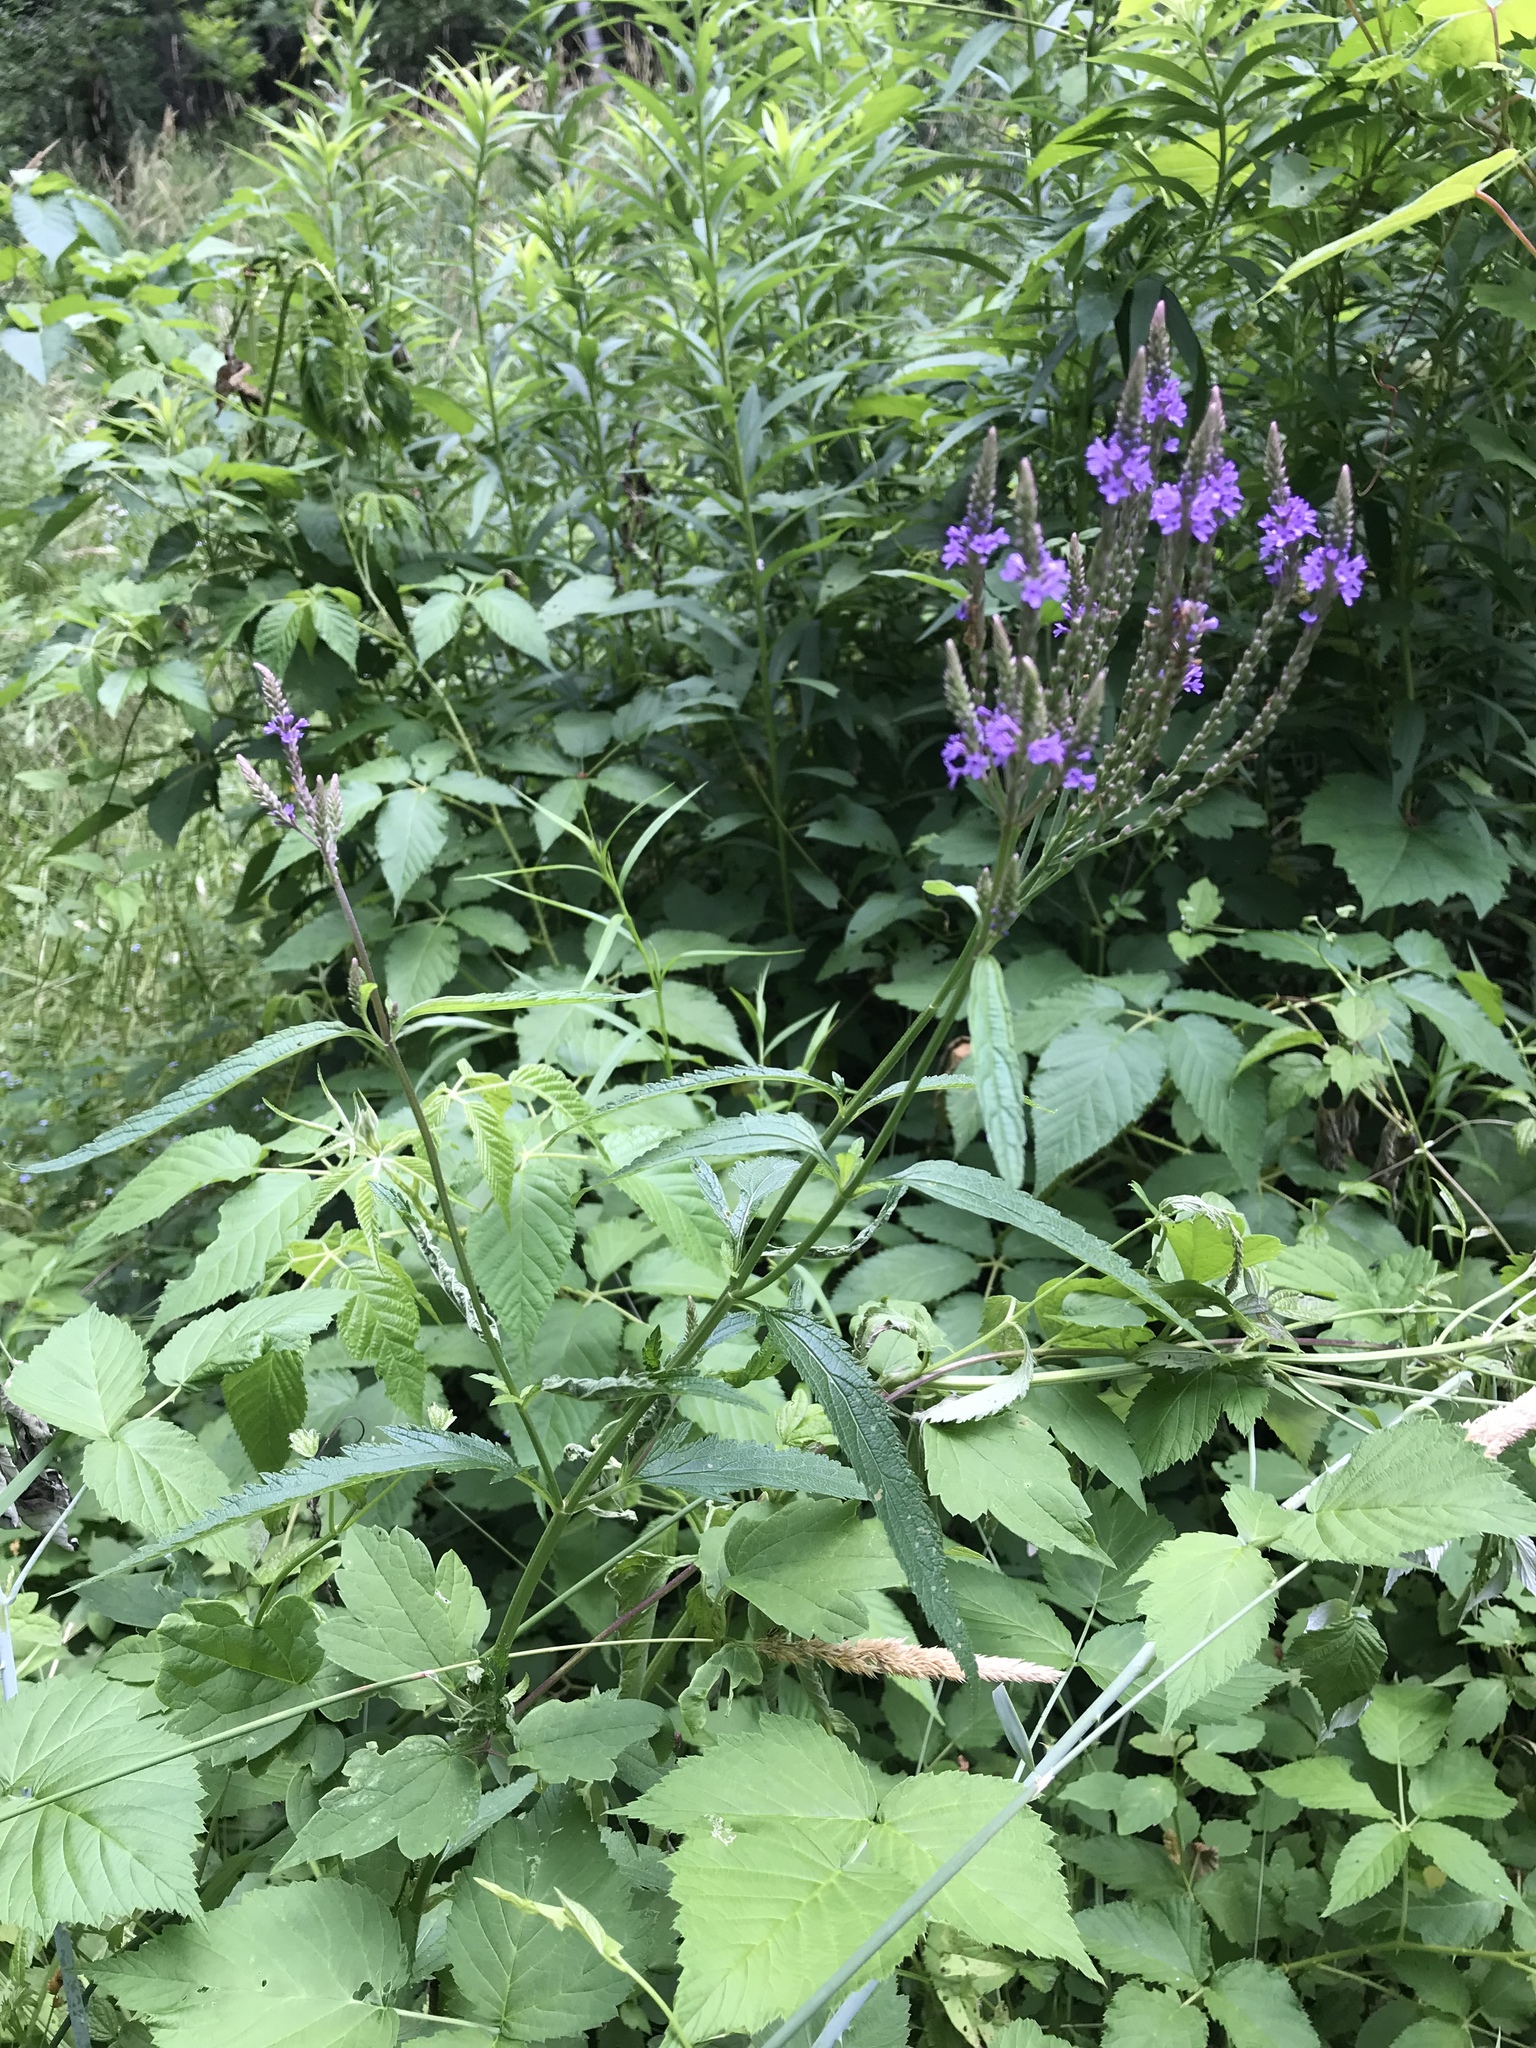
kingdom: Plantae
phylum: Tracheophyta
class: Magnoliopsida
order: Lamiales
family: Verbenaceae
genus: Verbena
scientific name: Verbena hastata
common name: American blue vervain
